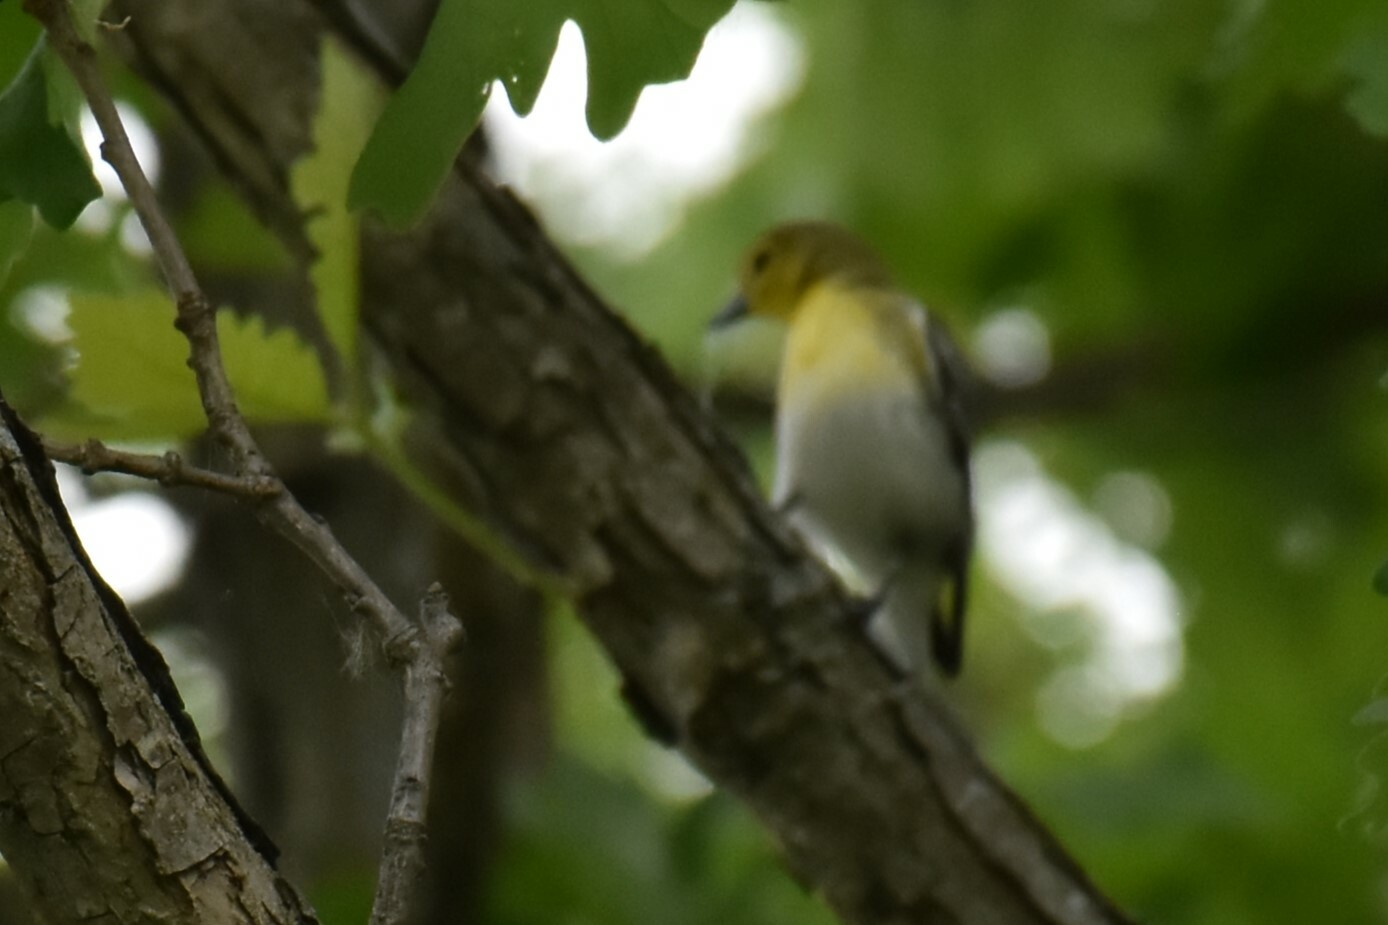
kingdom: Animalia
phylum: Chordata
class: Aves
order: Passeriformes
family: Vireonidae
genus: Vireo
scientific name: Vireo flavifrons
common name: Yellow-throated vireo
